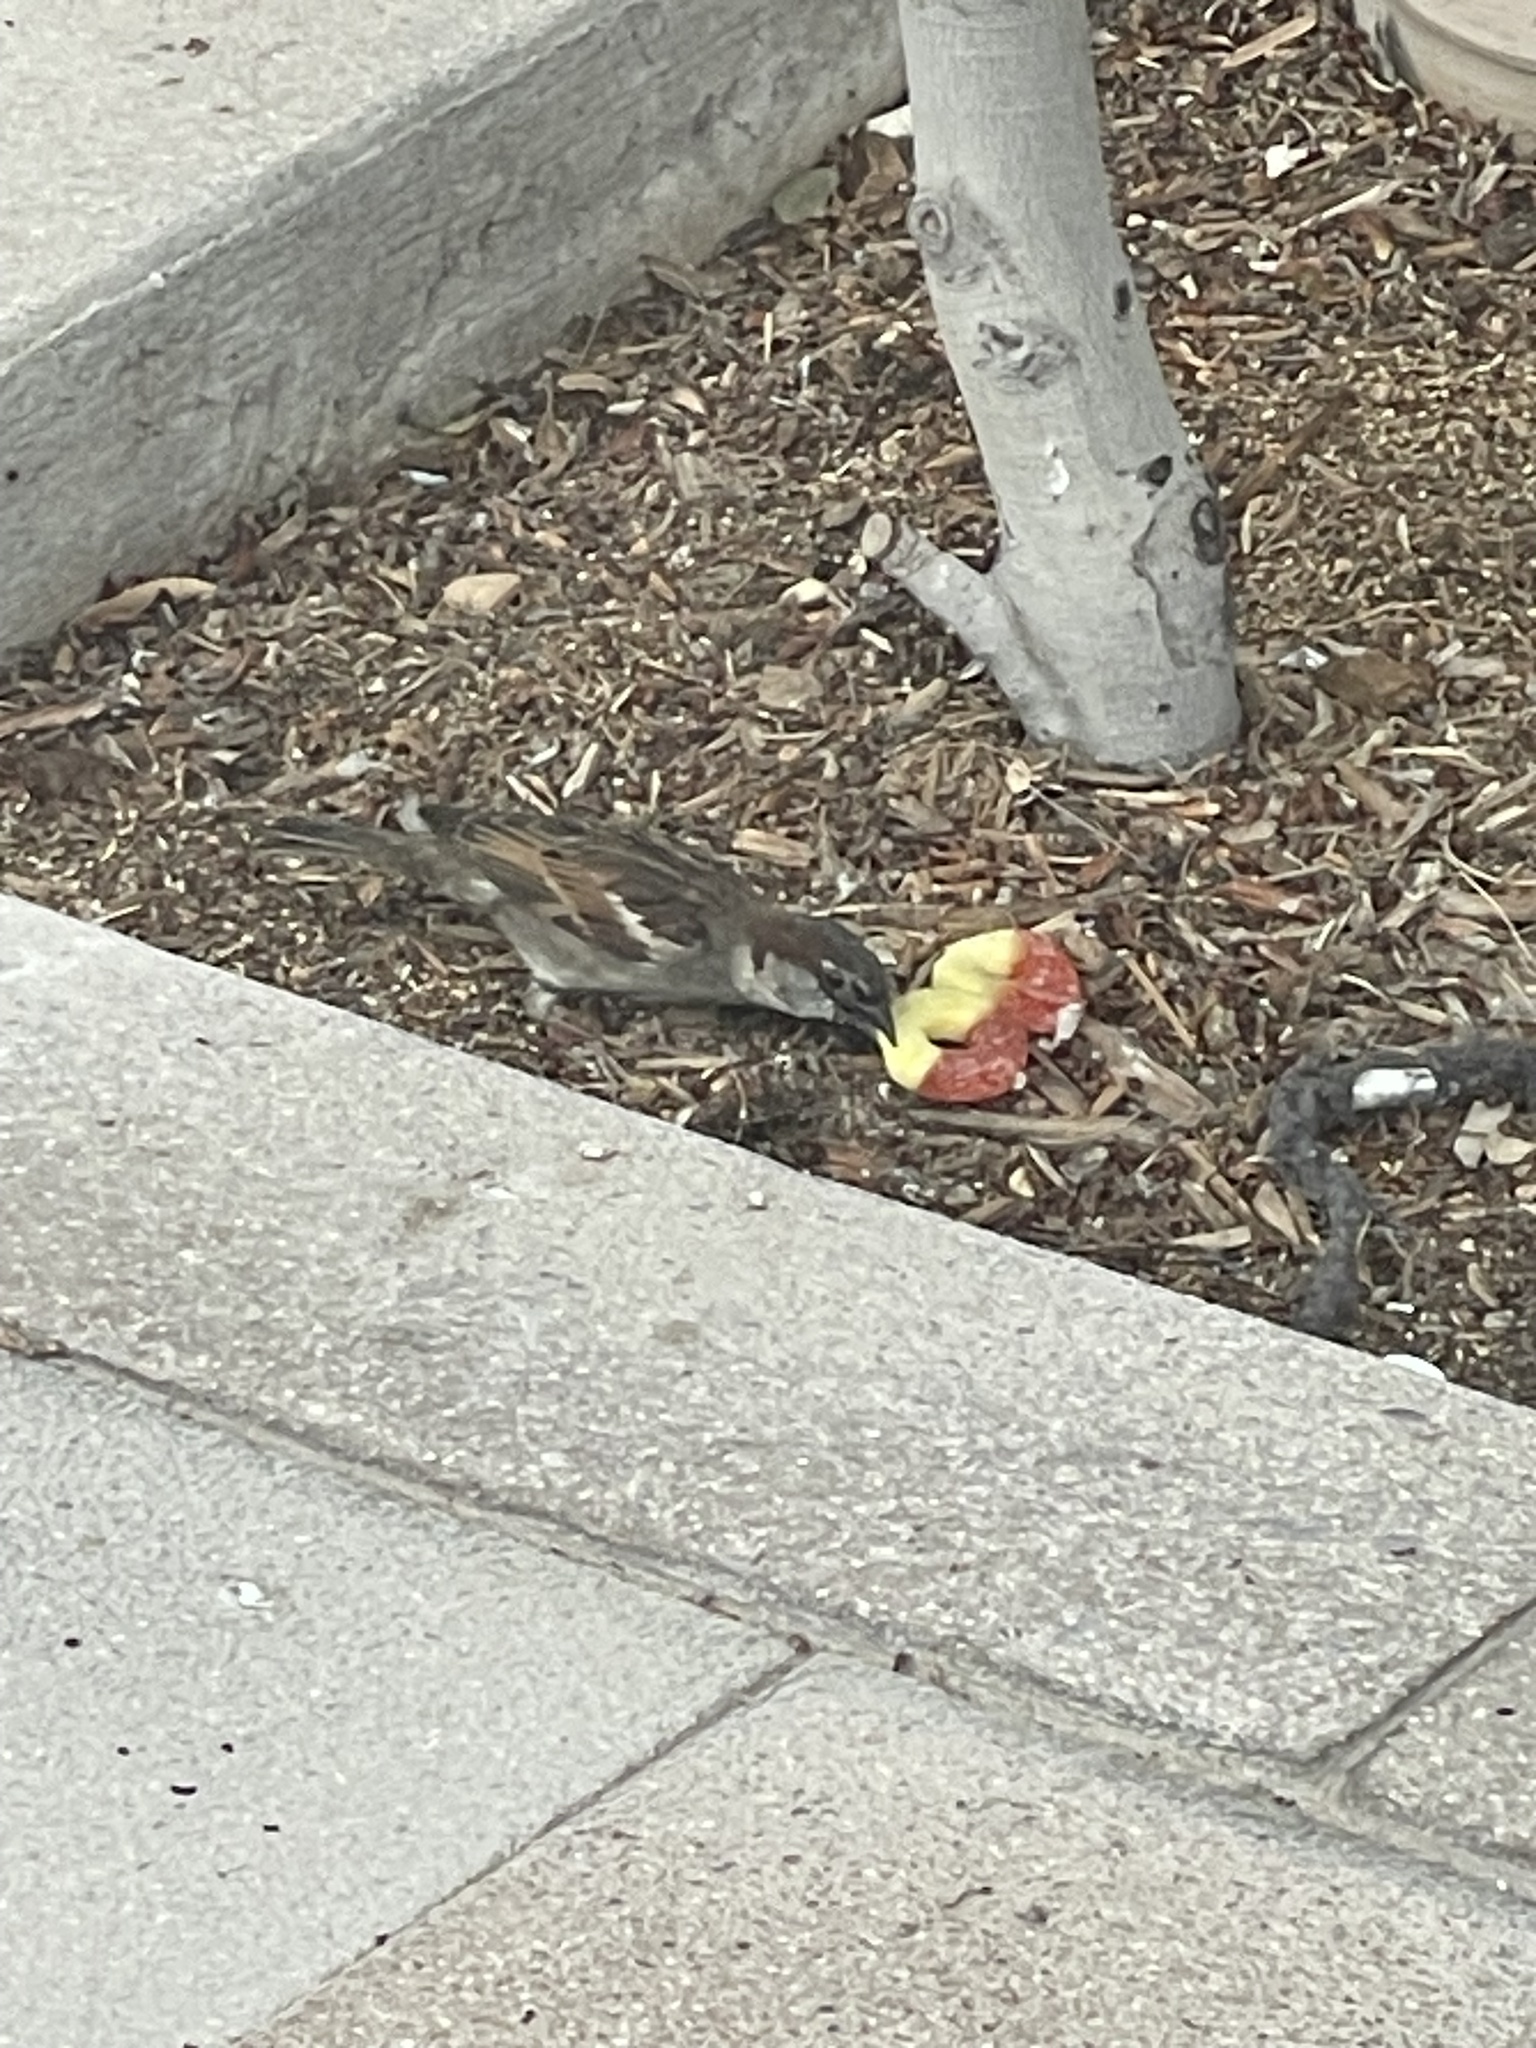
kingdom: Animalia
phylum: Chordata
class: Aves
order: Passeriformes
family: Passeridae
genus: Passer
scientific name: Passer domesticus
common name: House sparrow
